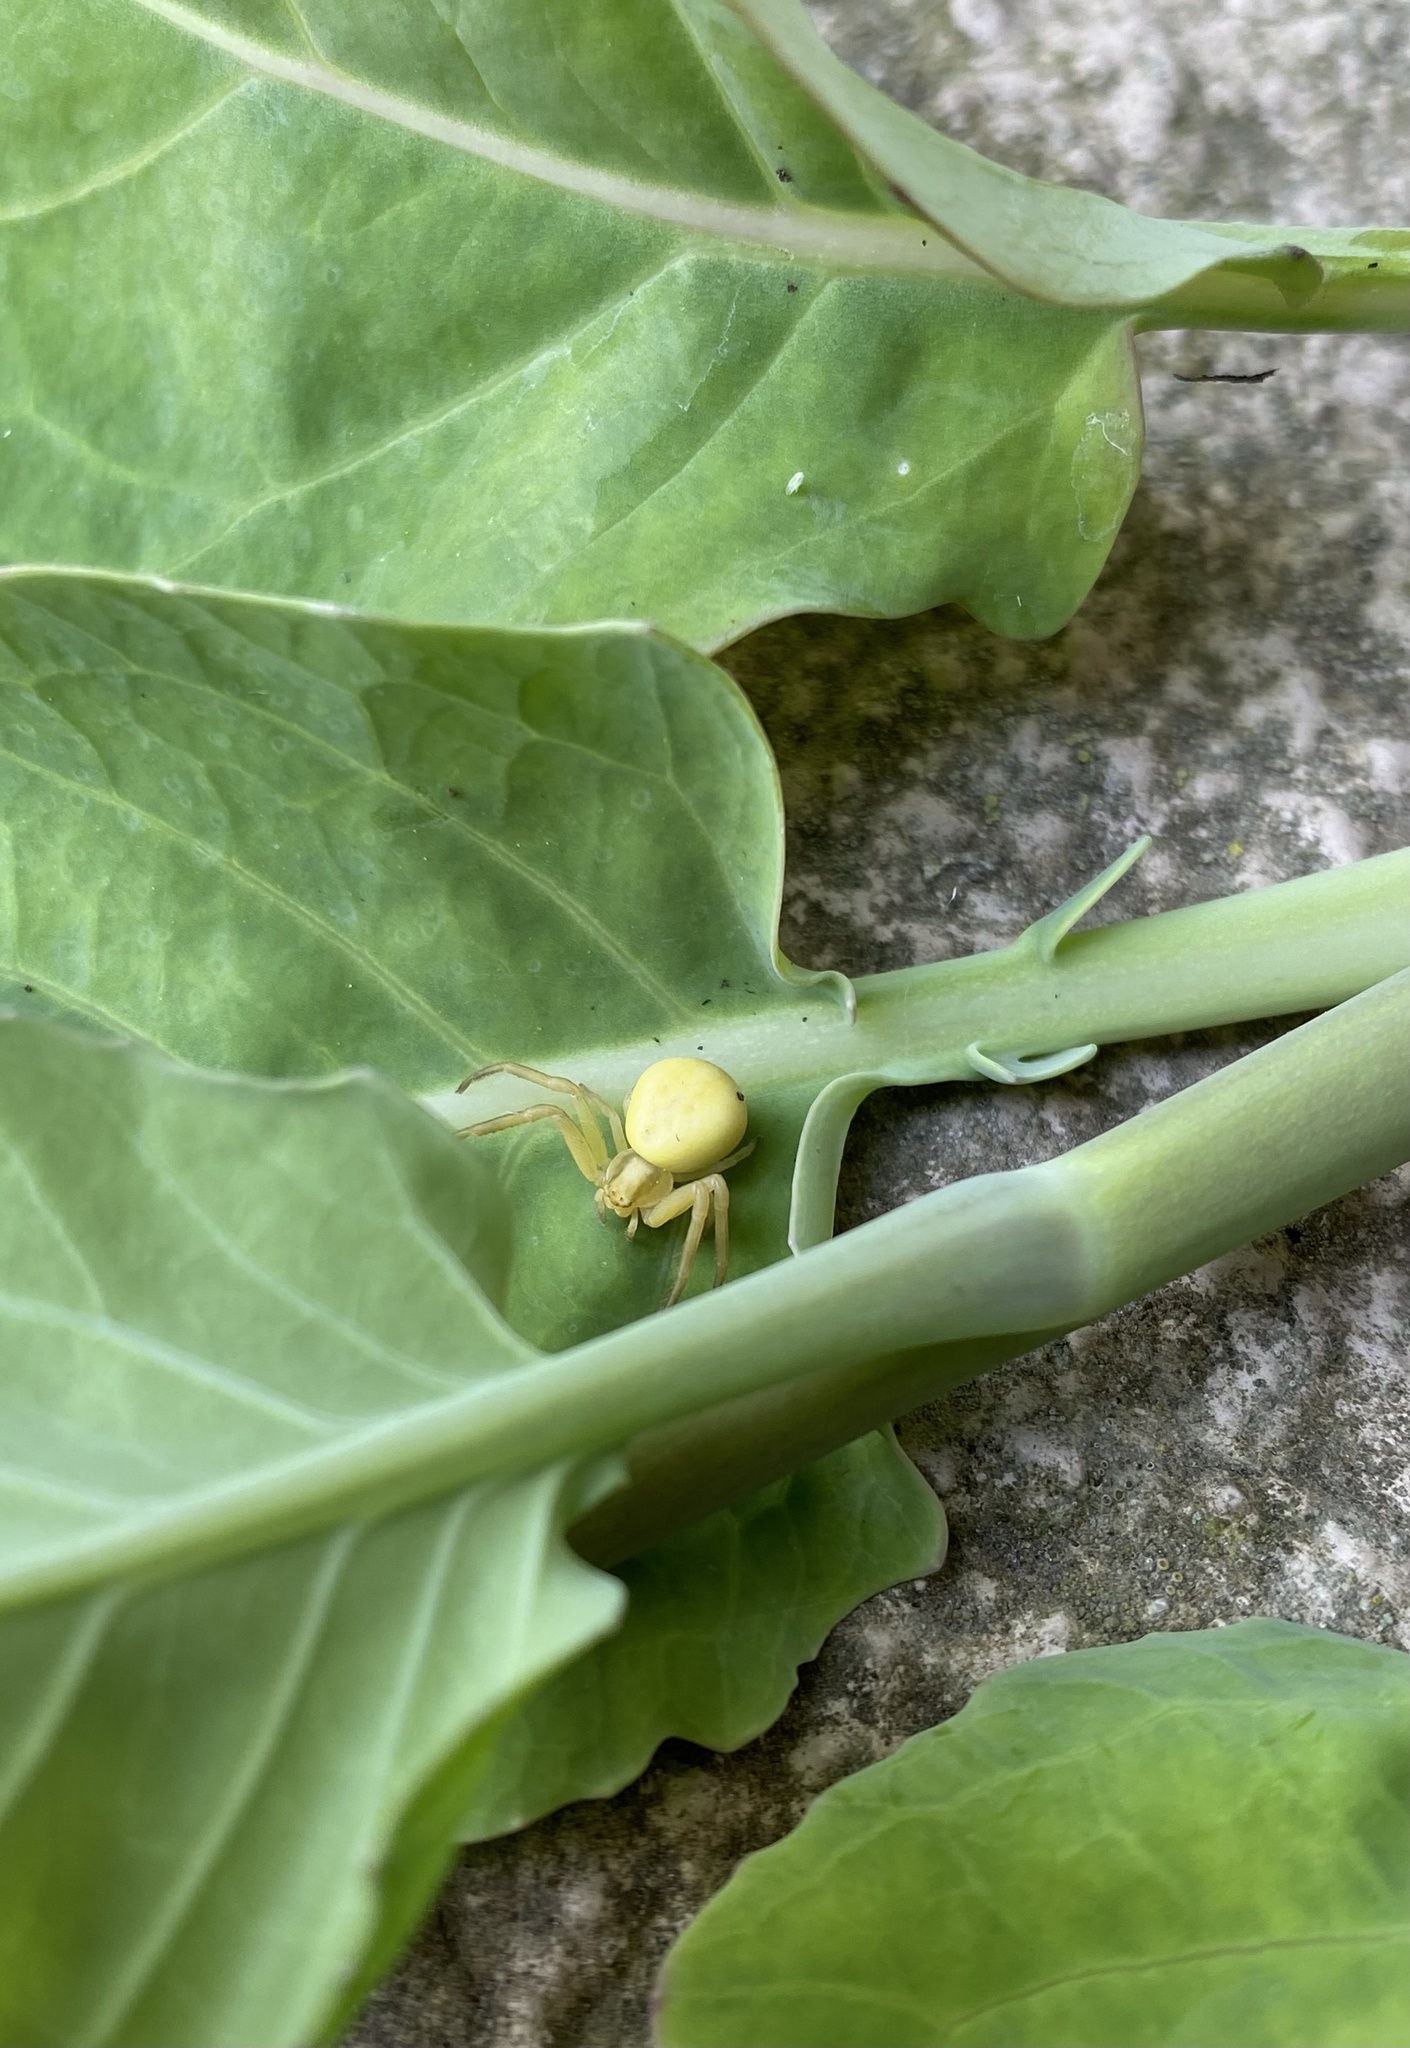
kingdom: Animalia
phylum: Arthropoda
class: Arachnida
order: Araneae
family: Thomisidae
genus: Misumena
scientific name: Misumena vatia
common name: Goldenrod crab spider
